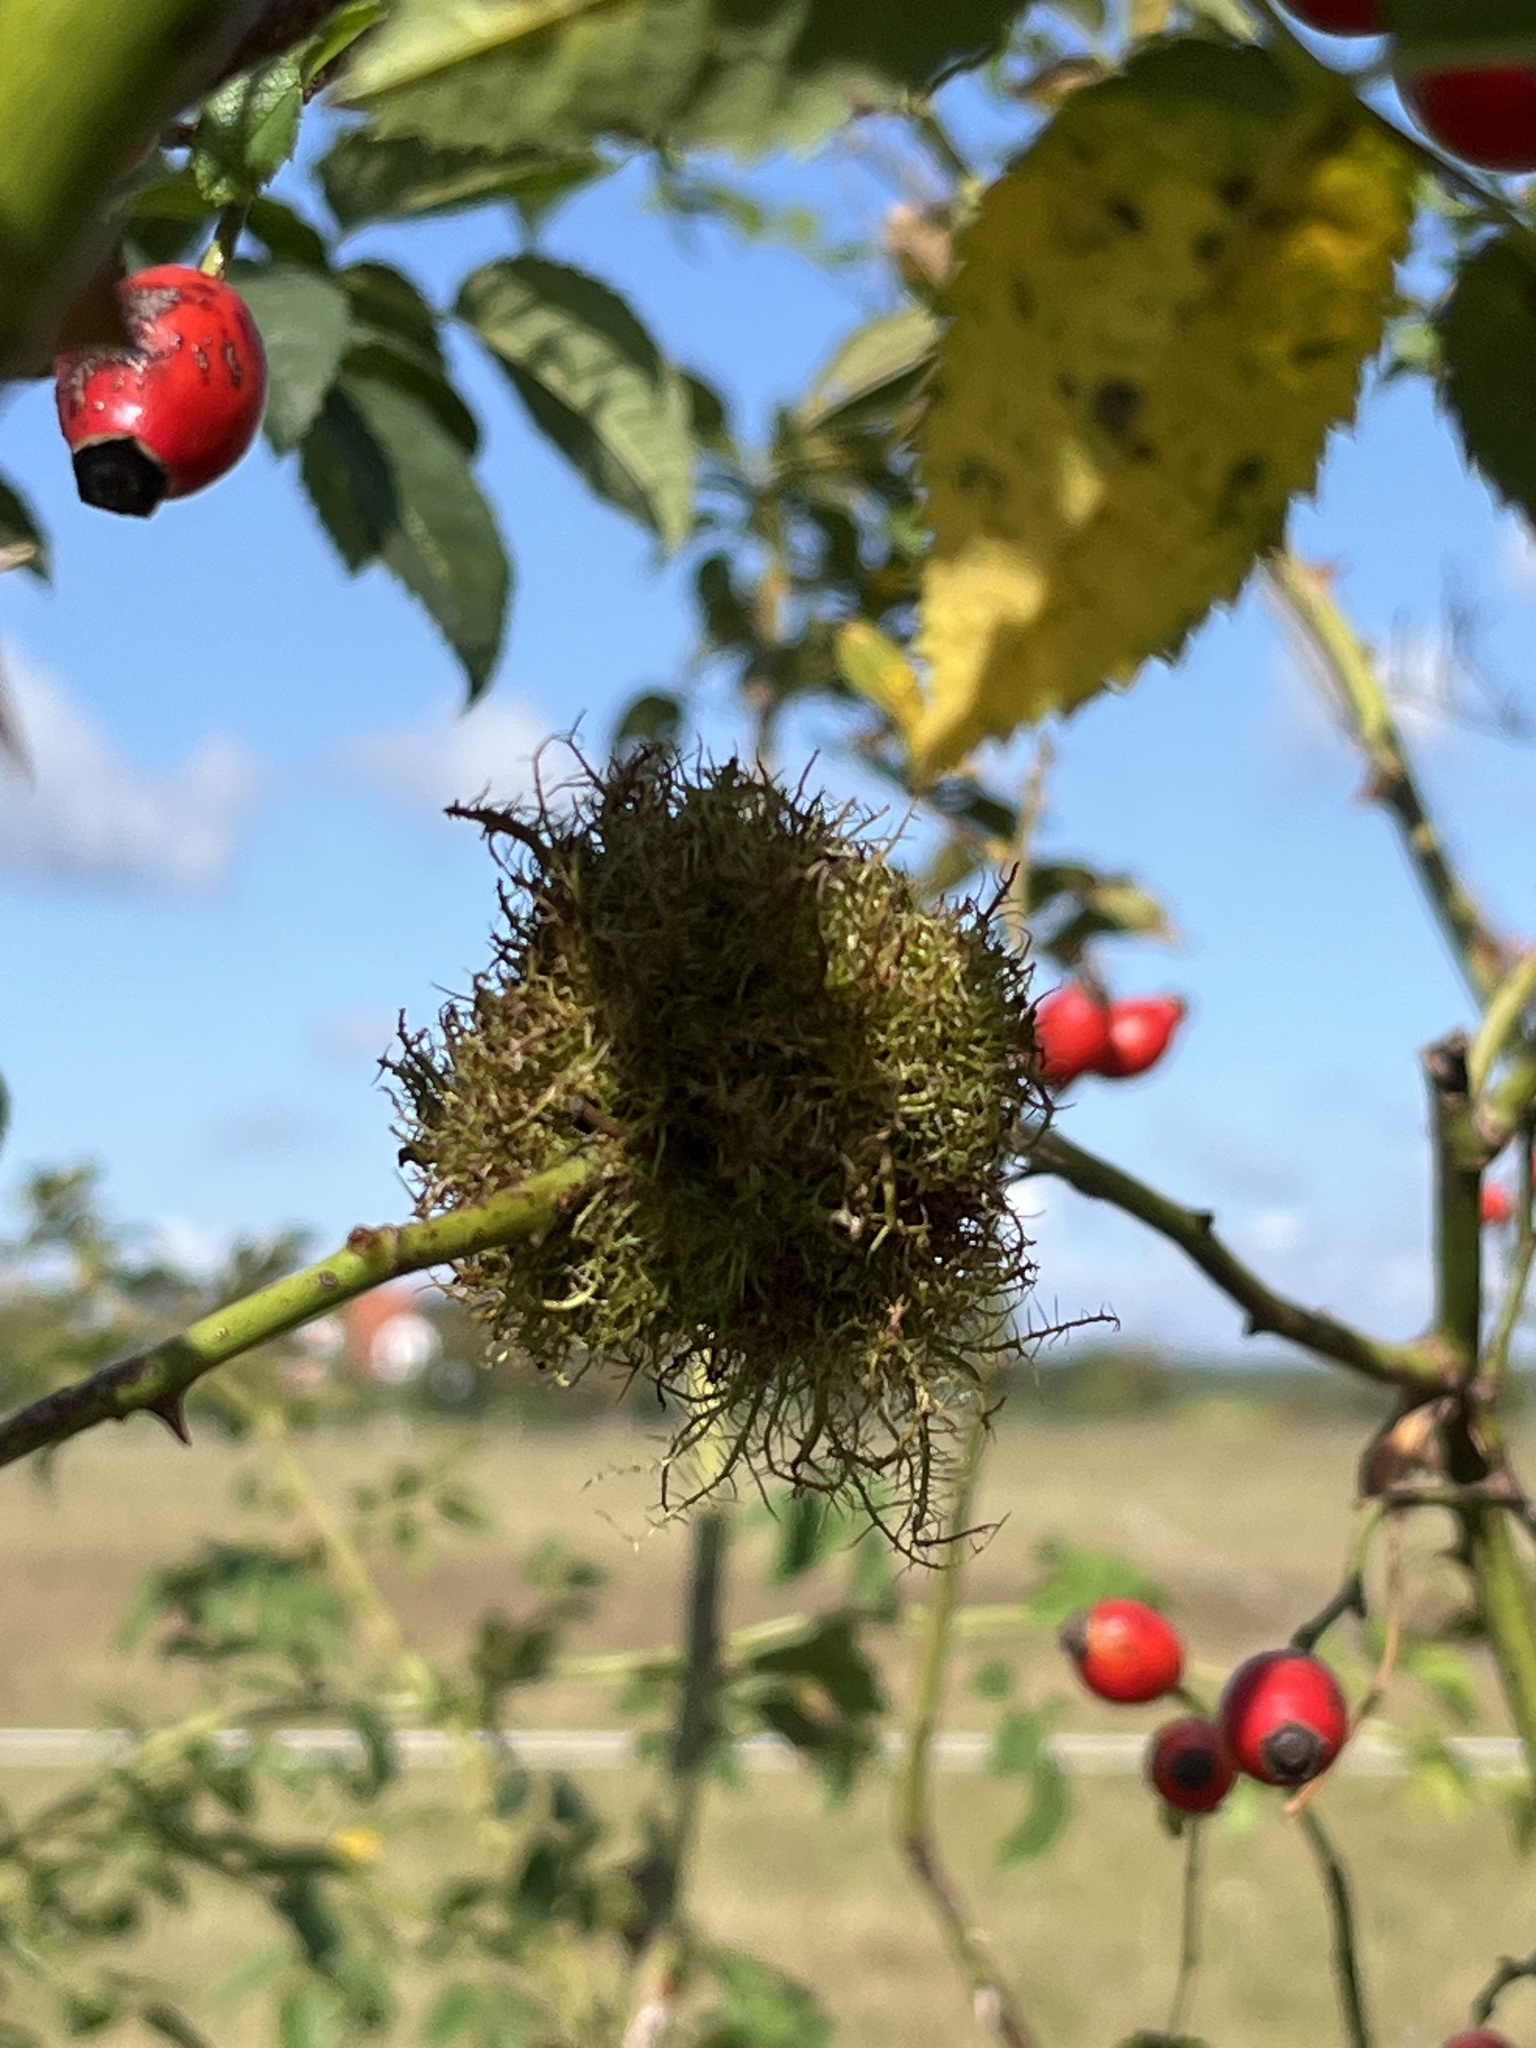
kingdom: Animalia
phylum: Arthropoda
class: Insecta
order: Hymenoptera
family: Cynipidae
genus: Diplolepis
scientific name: Diplolepis rosae
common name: Bedeguar gall
